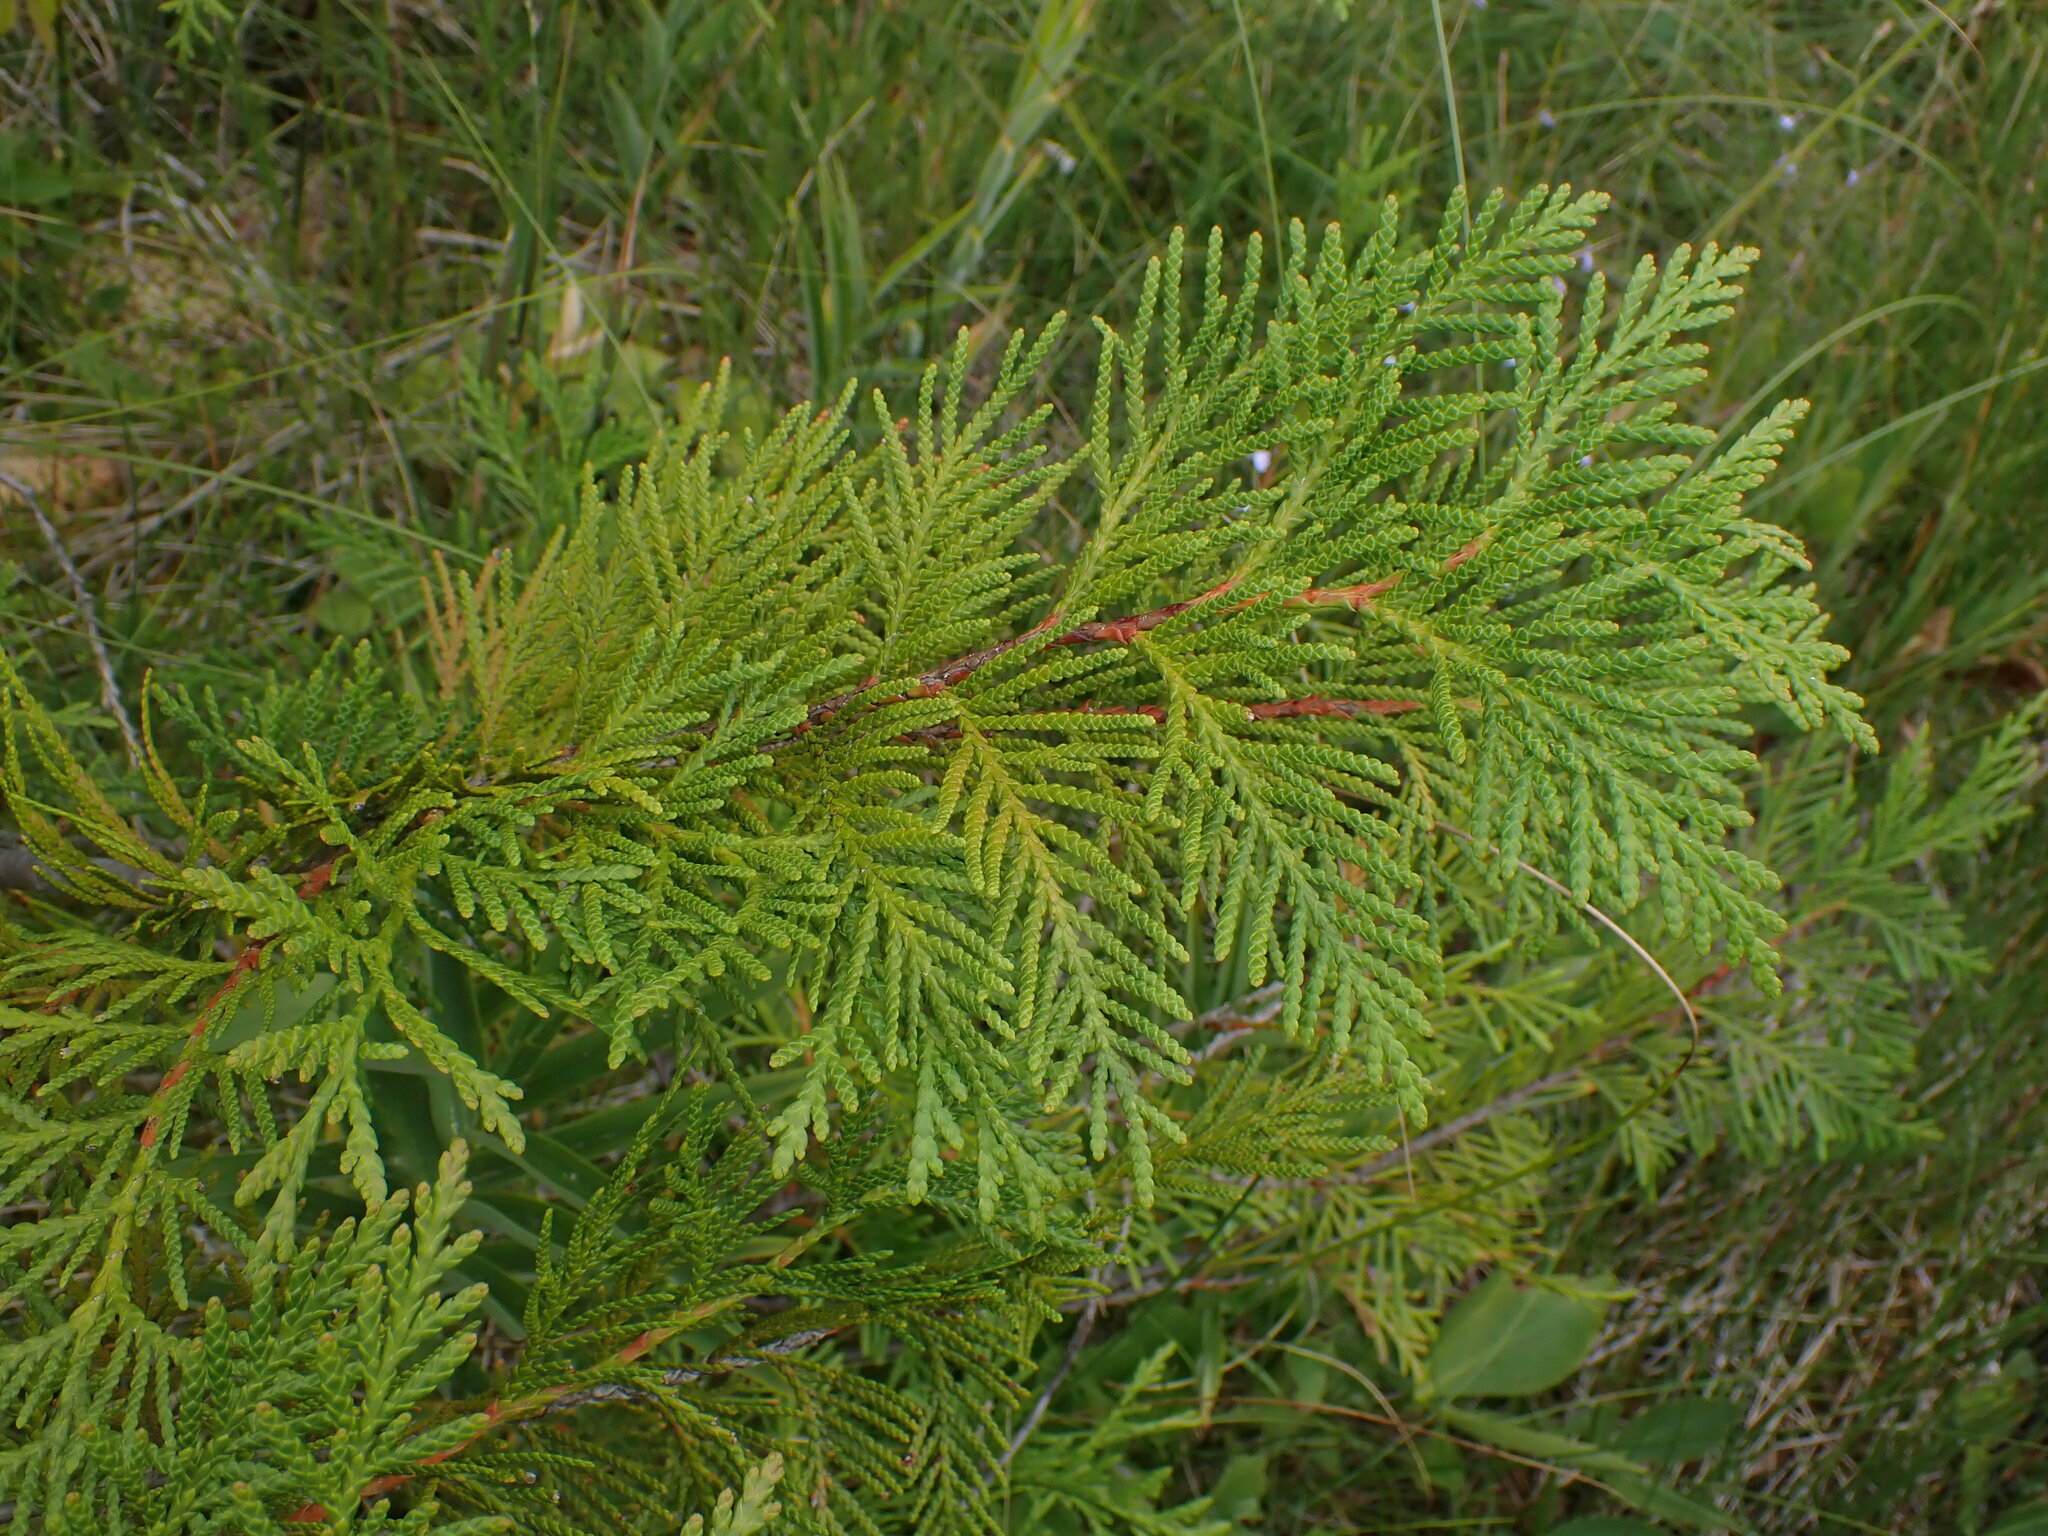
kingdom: Plantae
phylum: Tracheophyta
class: Pinopsida
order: Pinales
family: Cupressaceae
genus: Thuja
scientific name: Thuja plicata
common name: Western red-cedar
